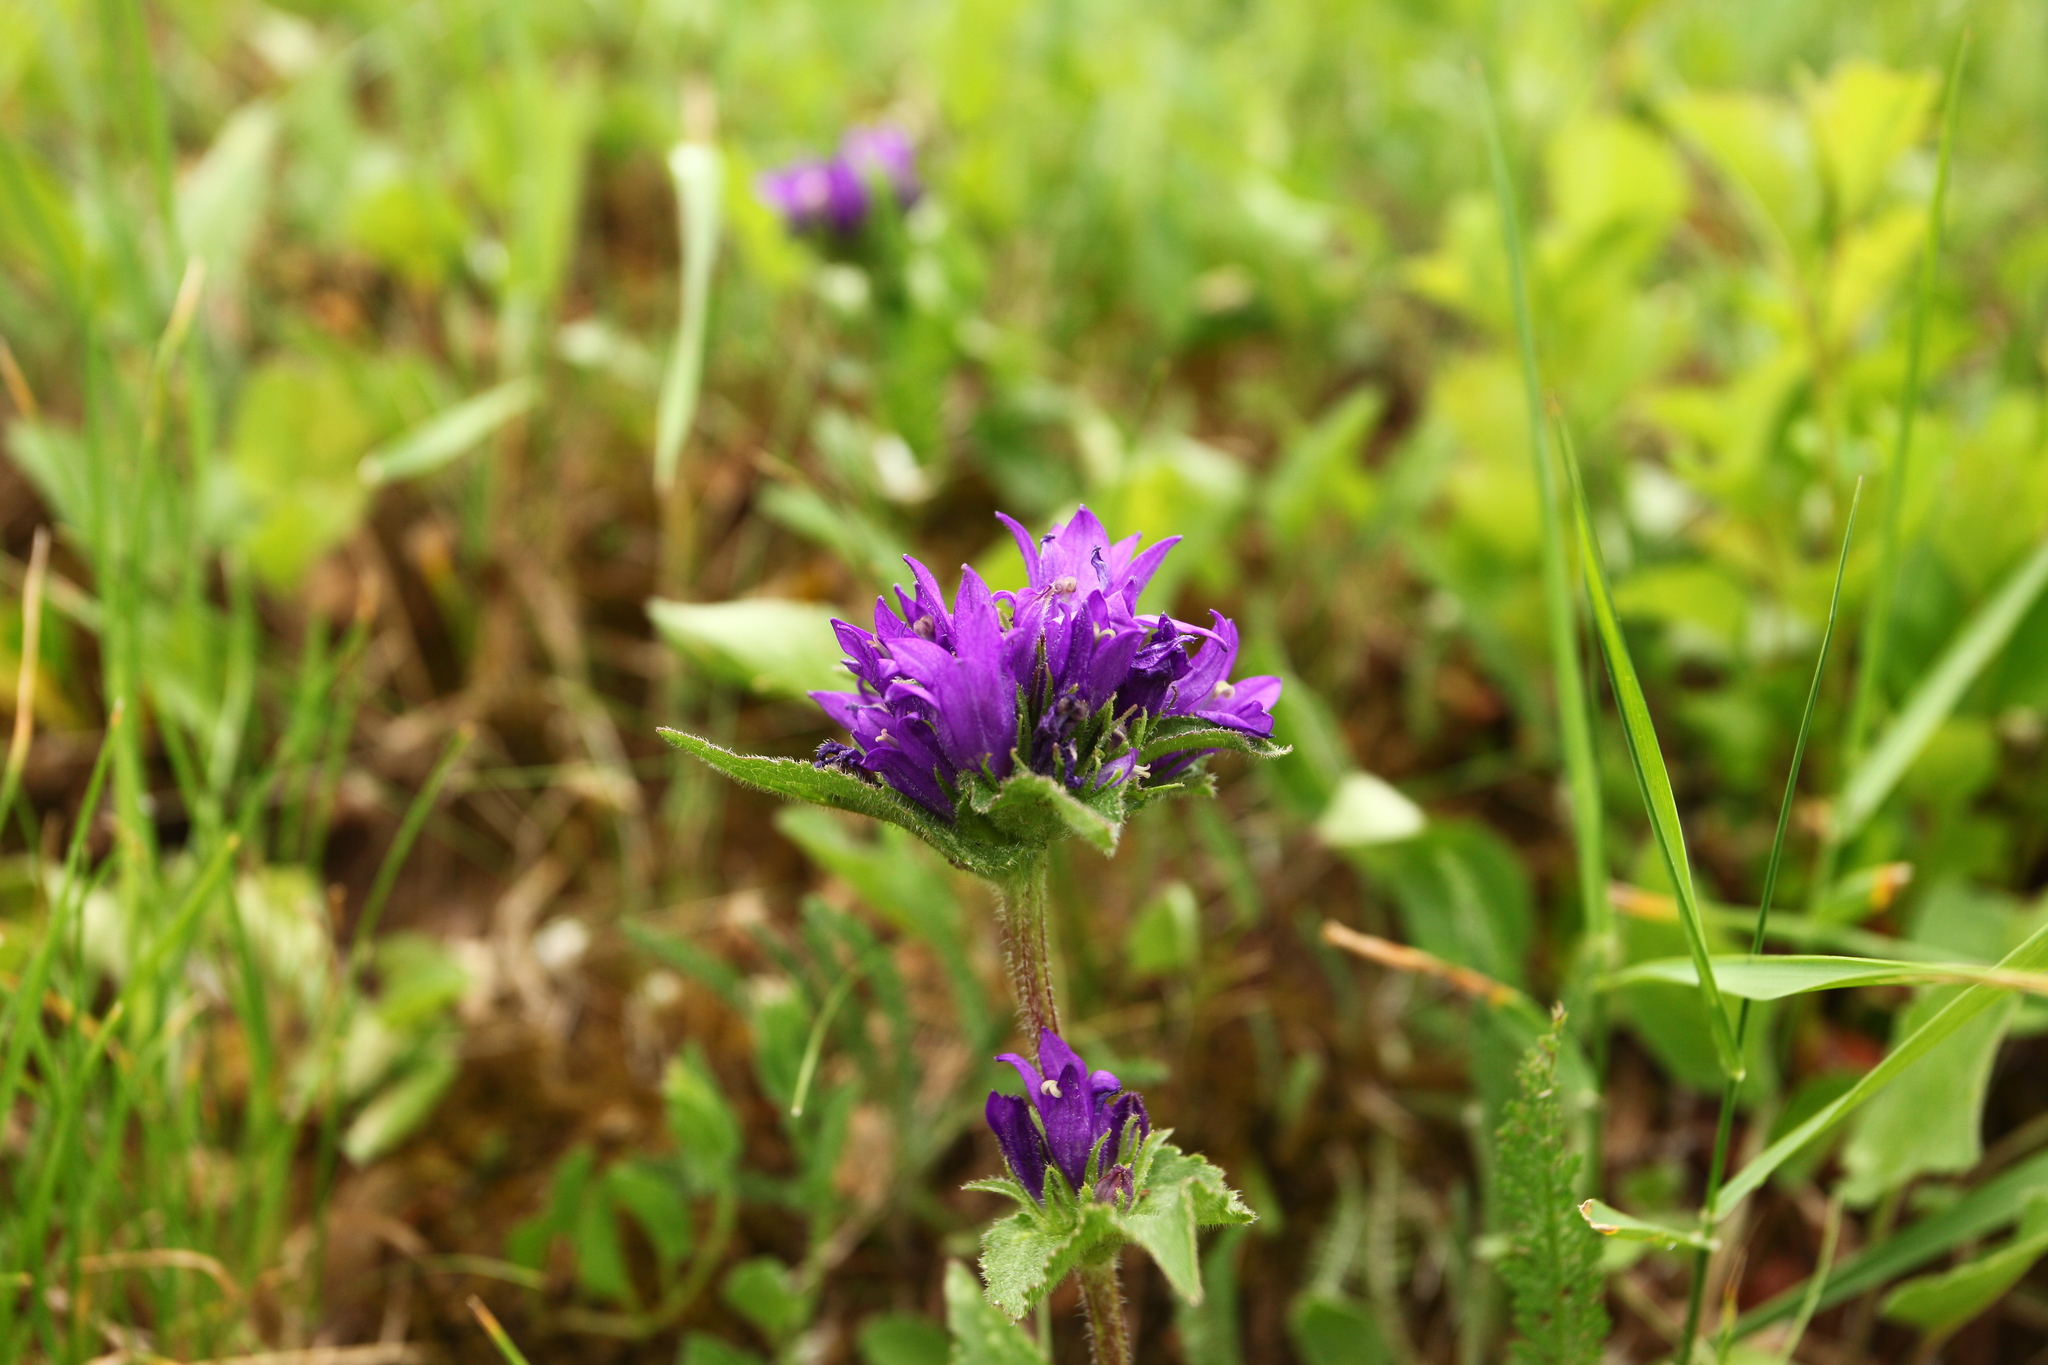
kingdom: Plantae
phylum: Tracheophyta
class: Magnoliopsida
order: Asterales
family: Campanulaceae
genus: Campanula
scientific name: Campanula glomerata
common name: Clustered bellflower
